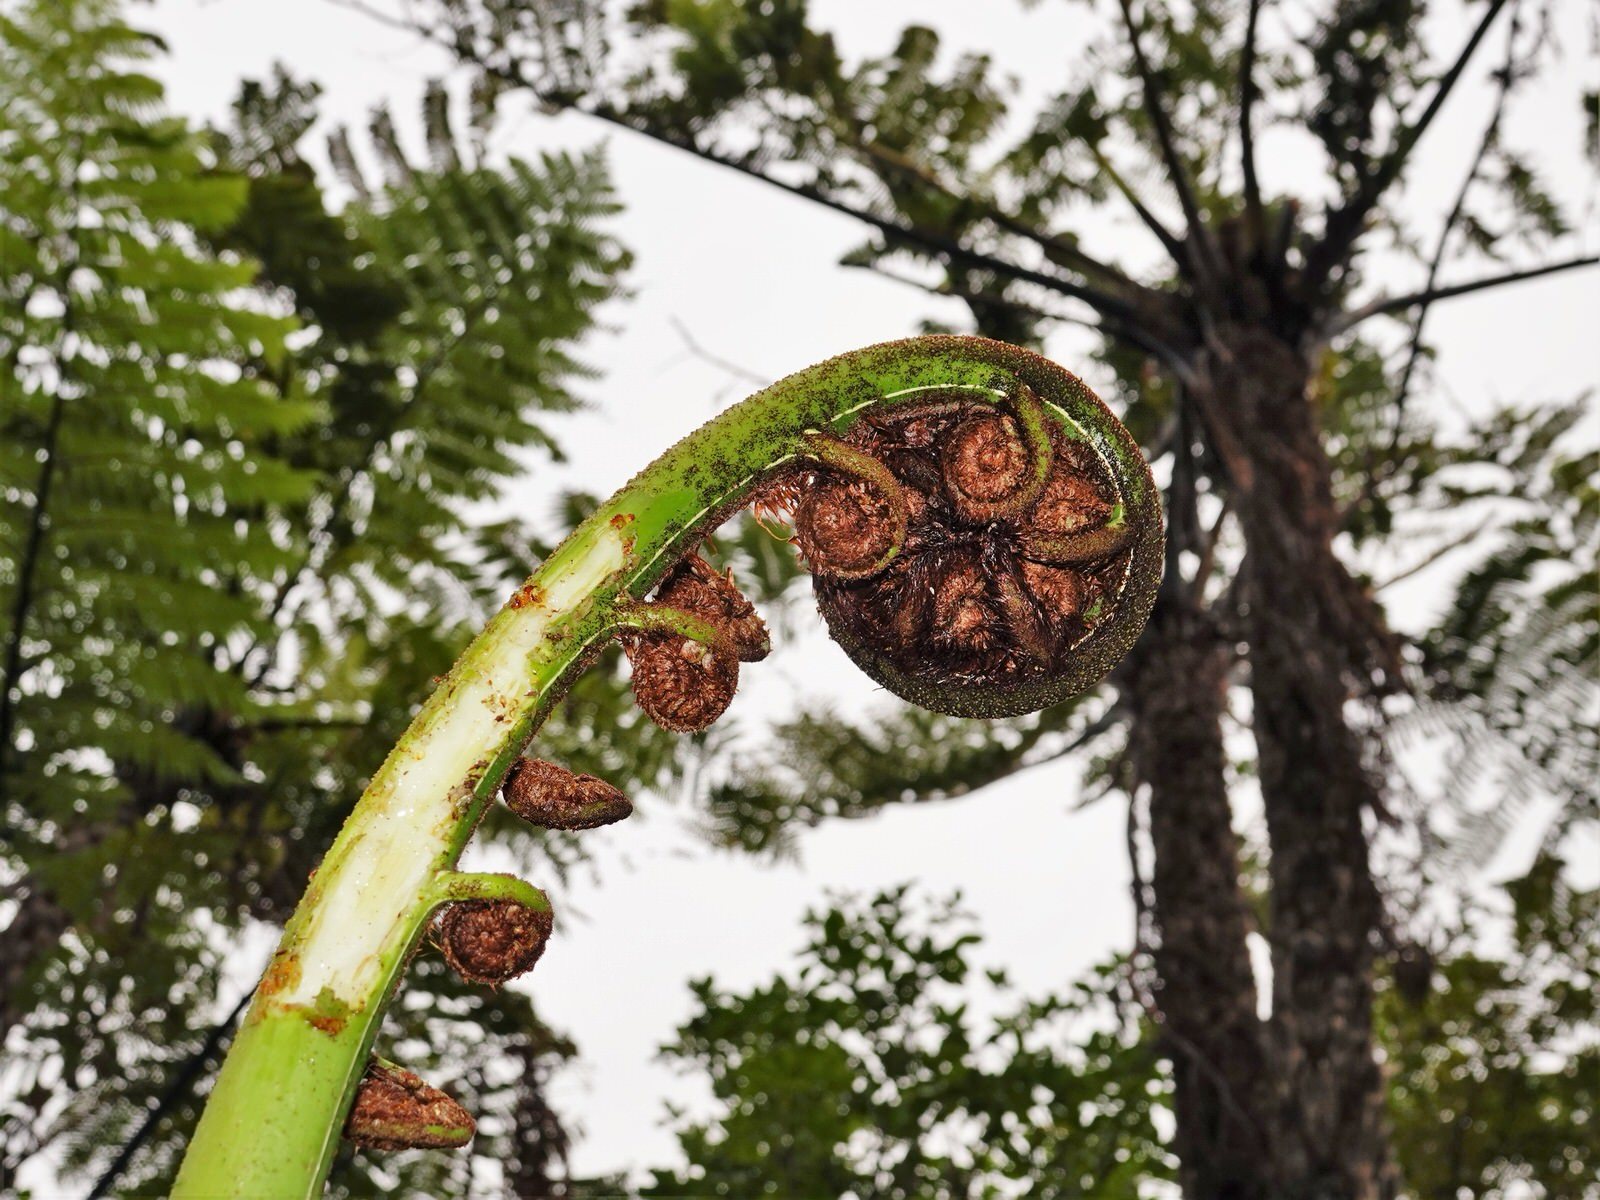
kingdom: Plantae
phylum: Tracheophyta
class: Polypodiopsida
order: Cyatheales
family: Cyatheaceae
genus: Sphaeropteris
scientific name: Sphaeropteris medullaris
